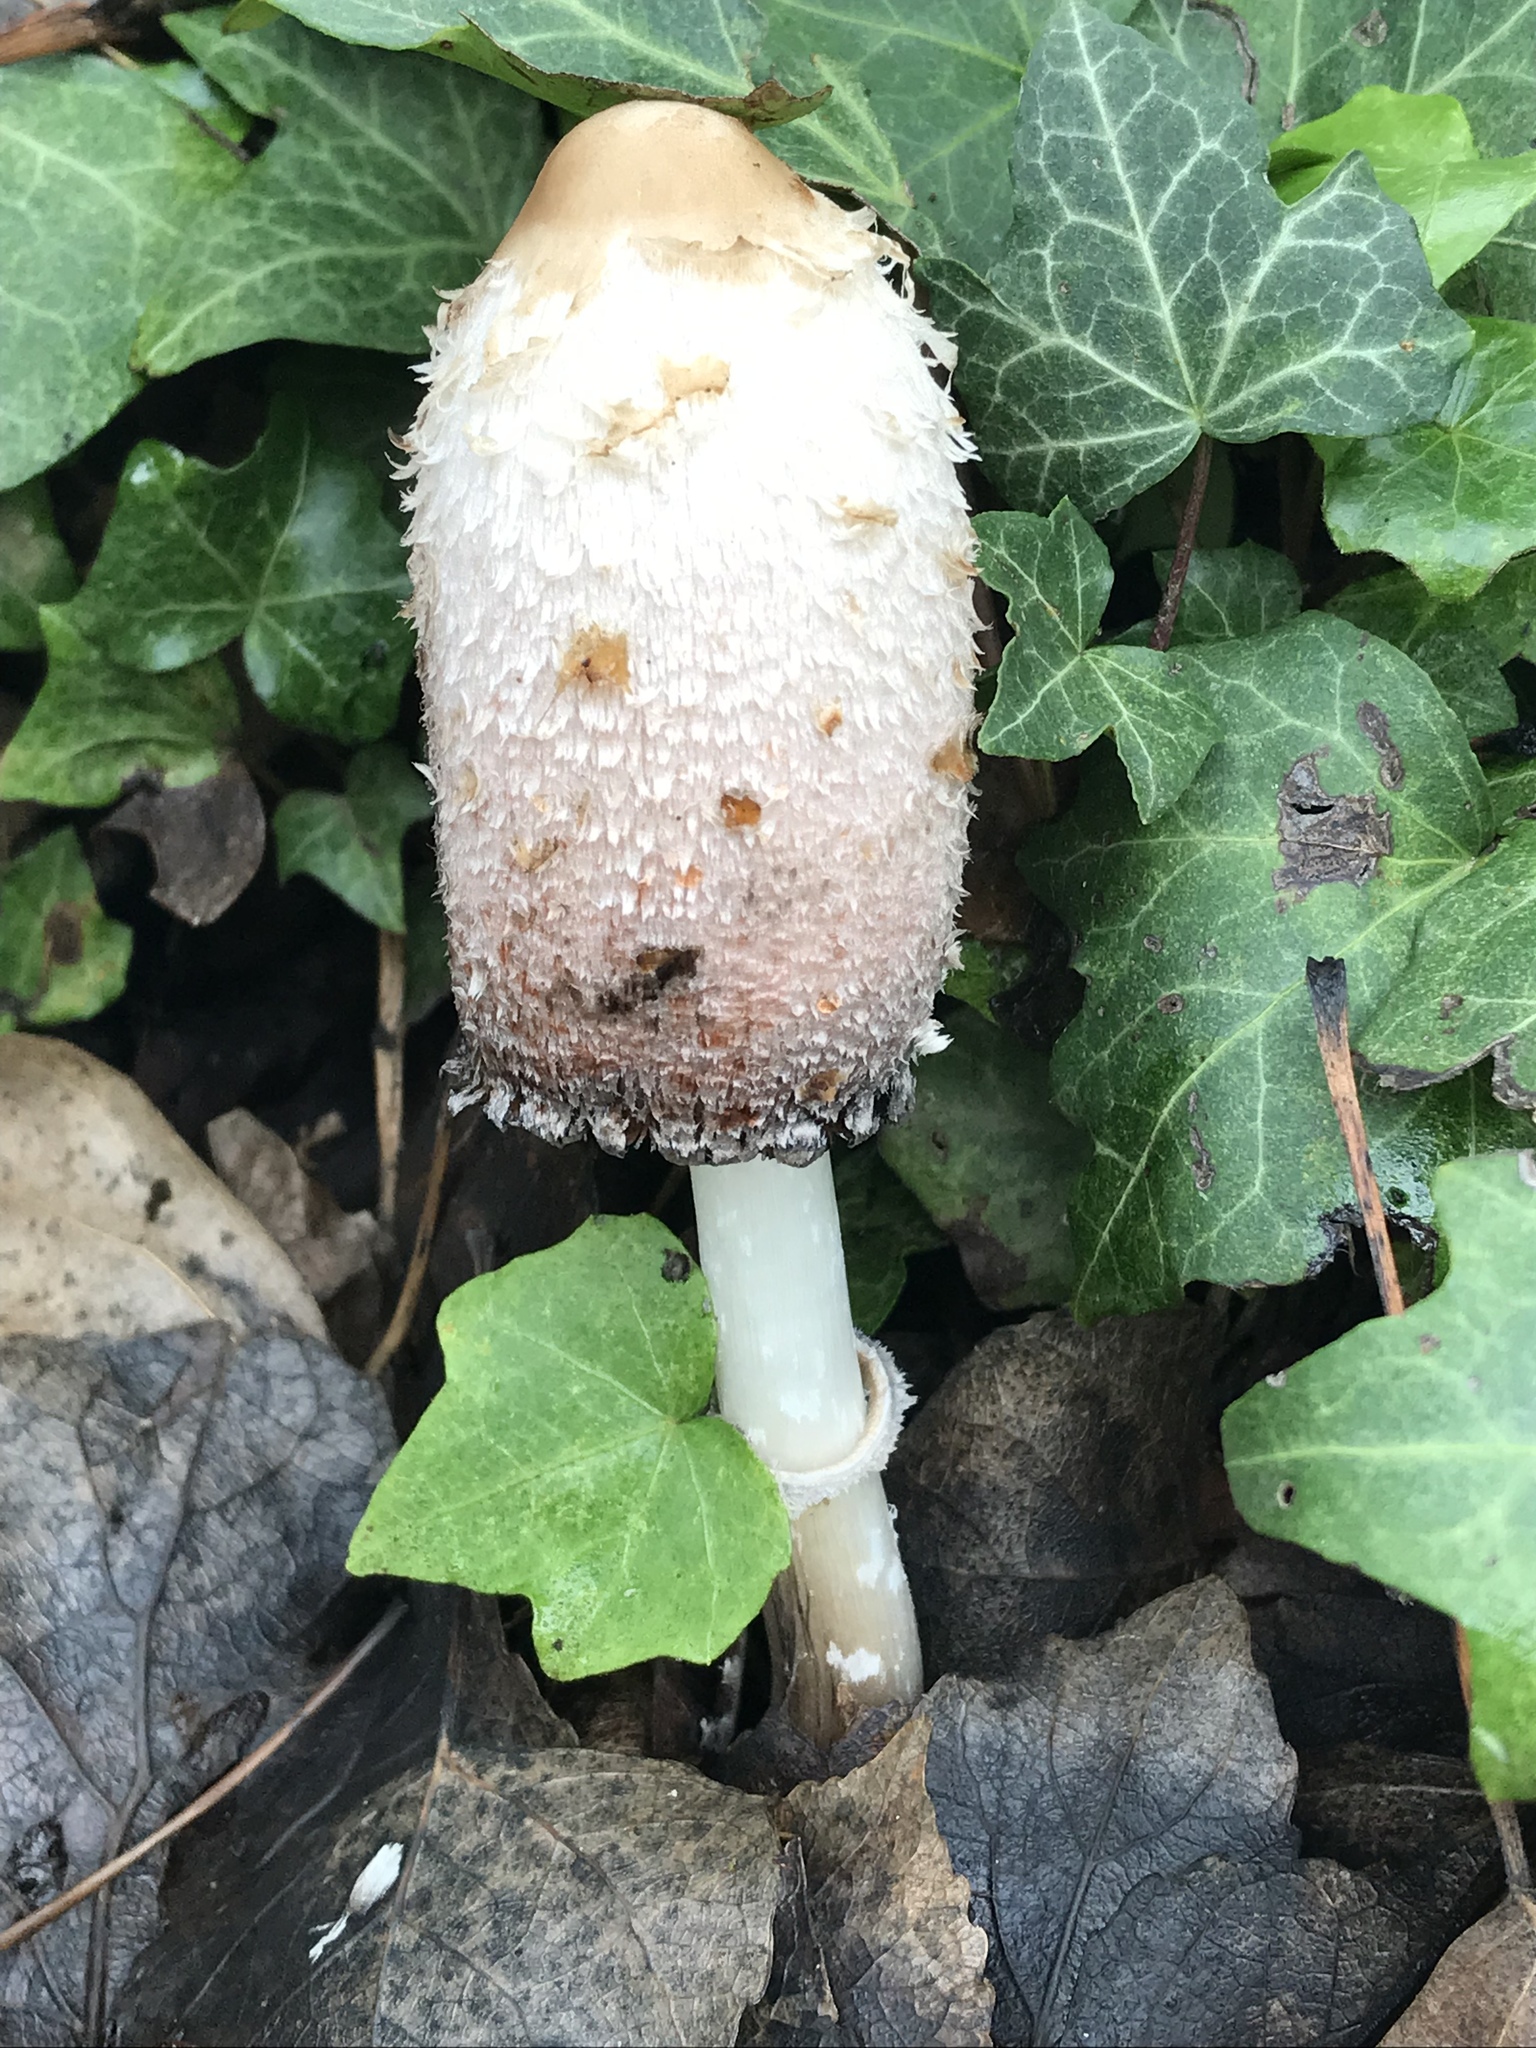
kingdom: Fungi
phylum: Basidiomycota
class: Agaricomycetes
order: Agaricales
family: Agaricaceae
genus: Coprinus
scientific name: Coprinus comatus
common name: Lawyer's wig
